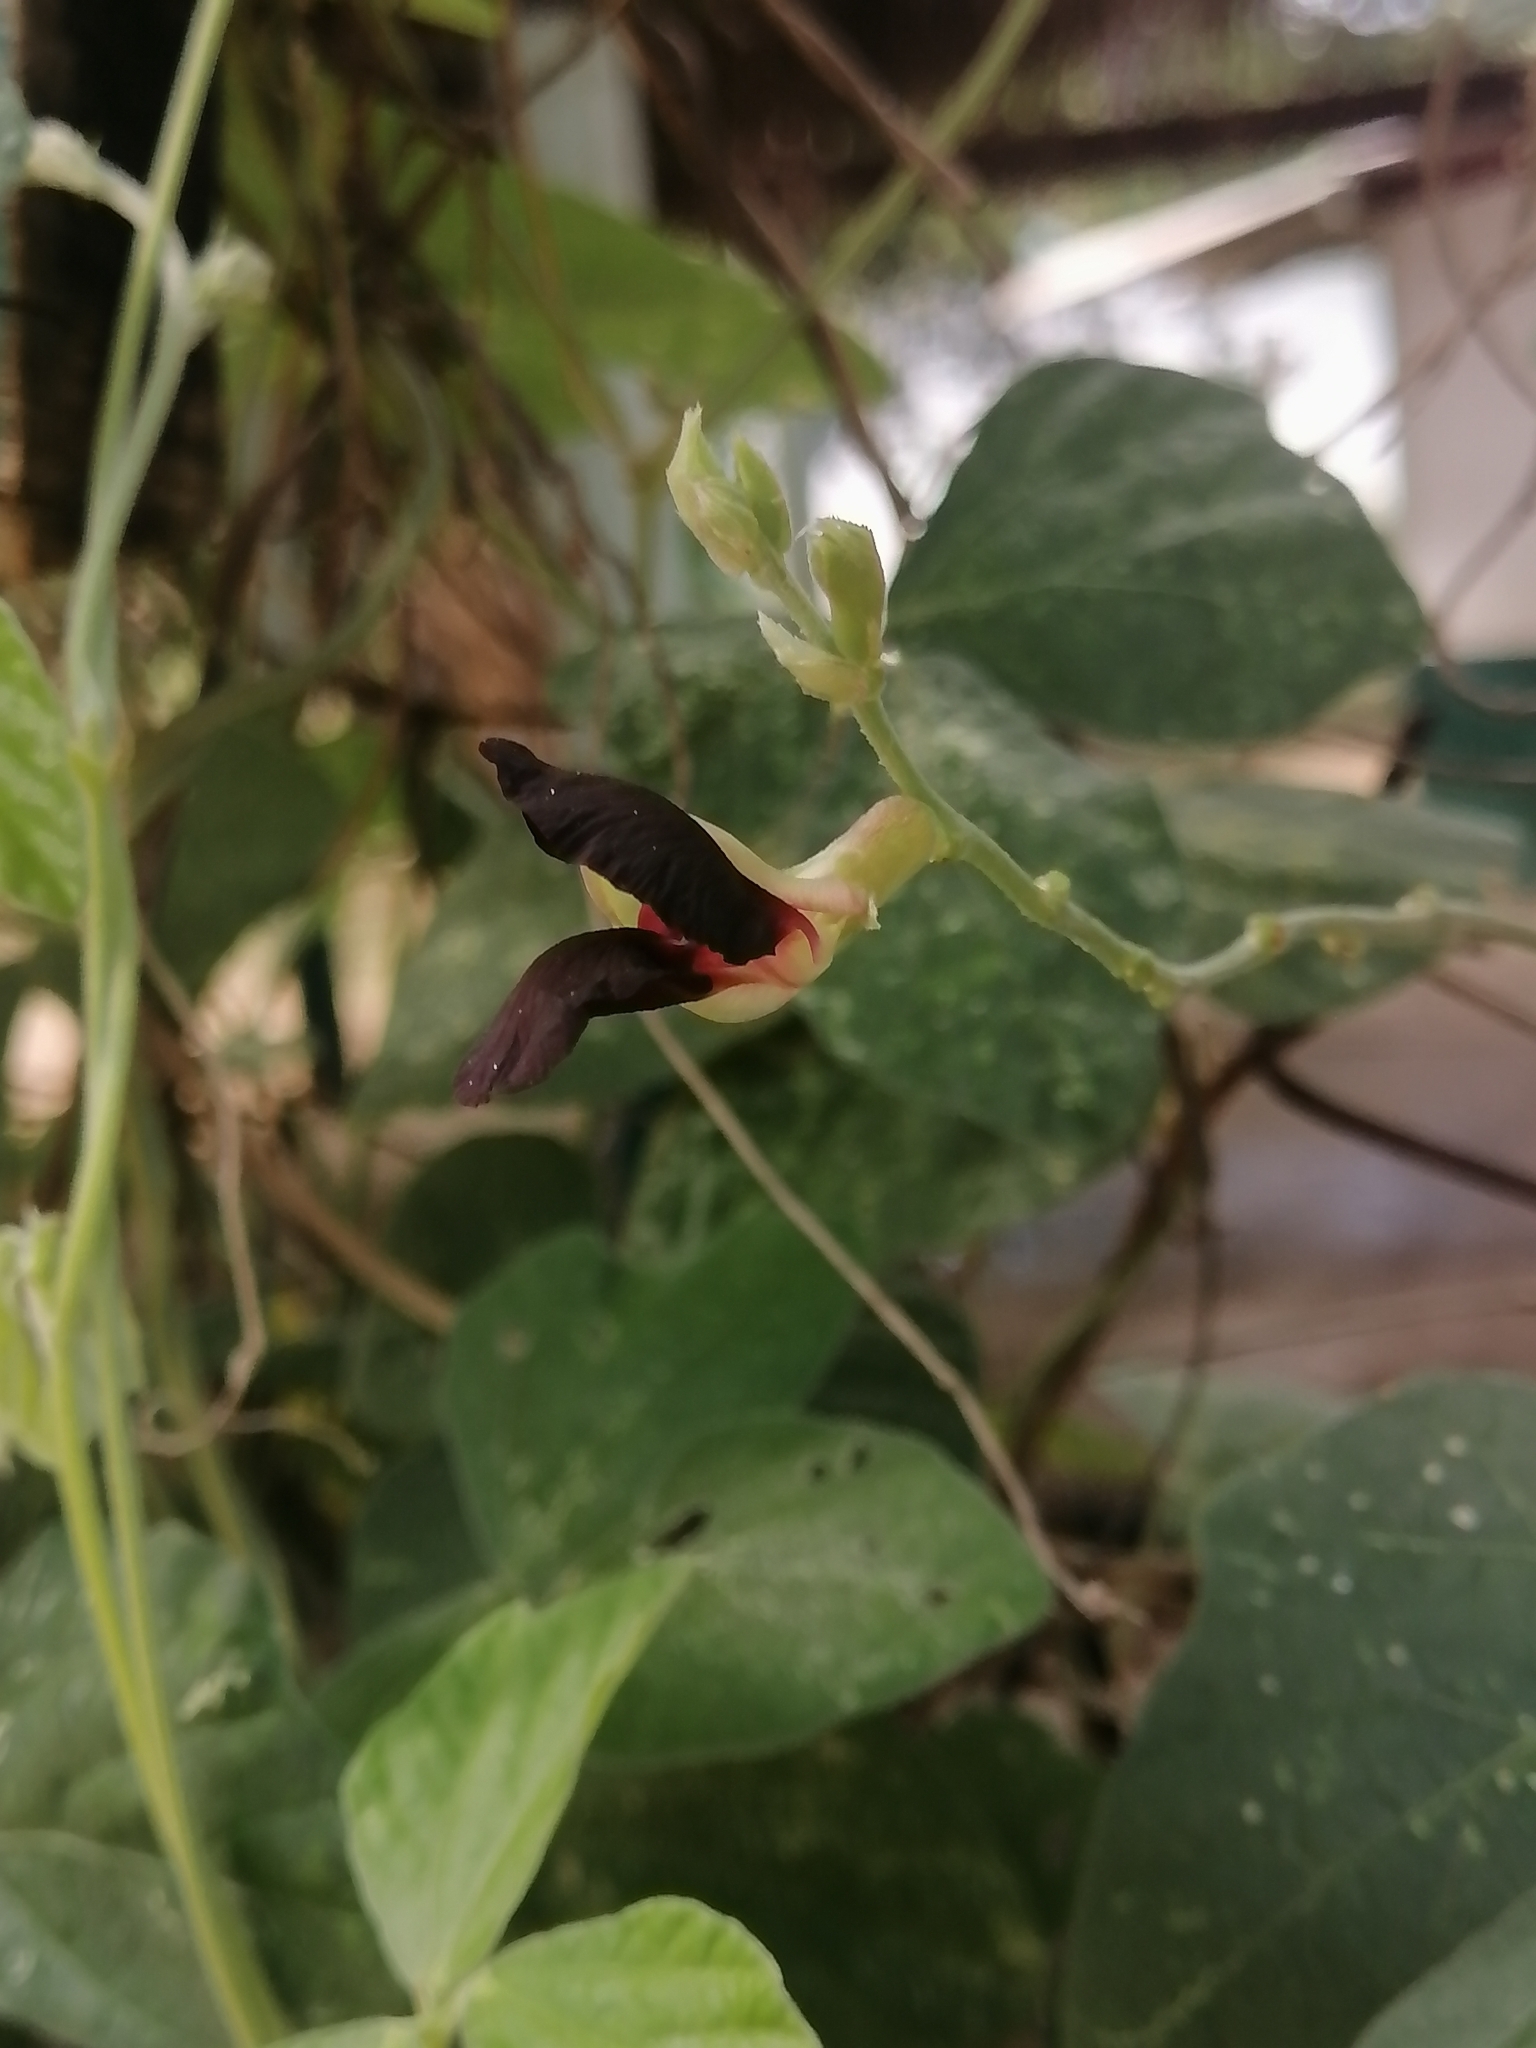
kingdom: Plantae
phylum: Tracheophyta
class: Magnoliopsida
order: Fabales
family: Fabaceae
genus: Macroptilium
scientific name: Macroptilium atropurpureum
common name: Purple bushbean
